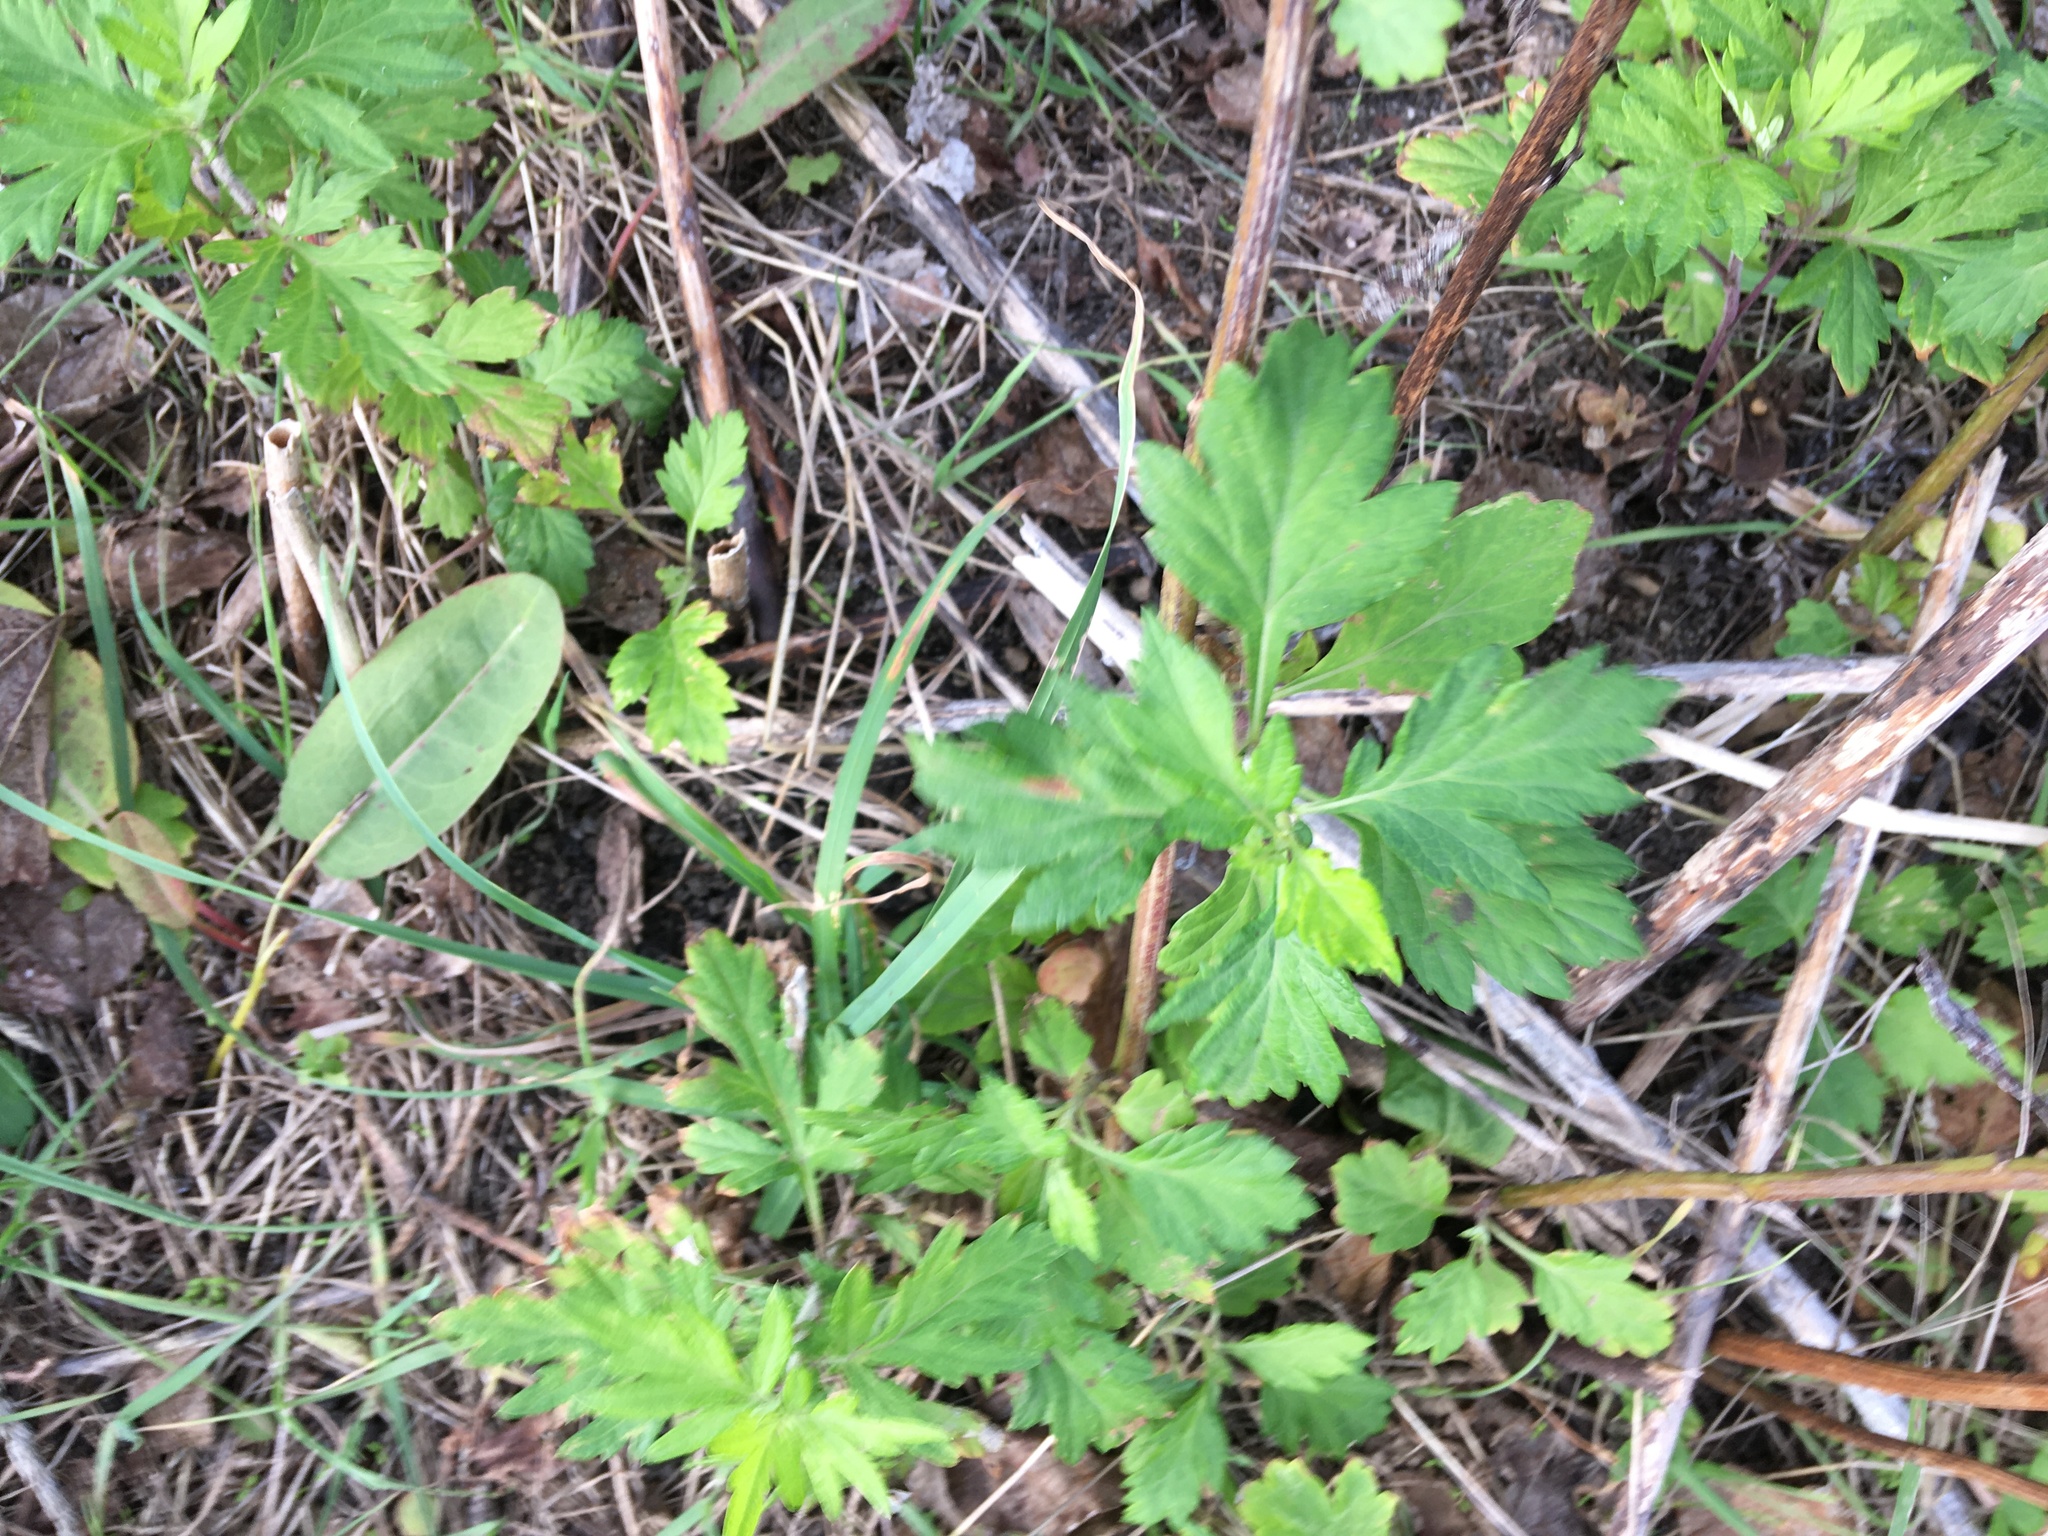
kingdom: Plantae
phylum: Tracheophyta
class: Magnoliopsida
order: Asterales
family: Asteraceae
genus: Artemisia
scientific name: Artemisia vulgaris
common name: Mugwort
